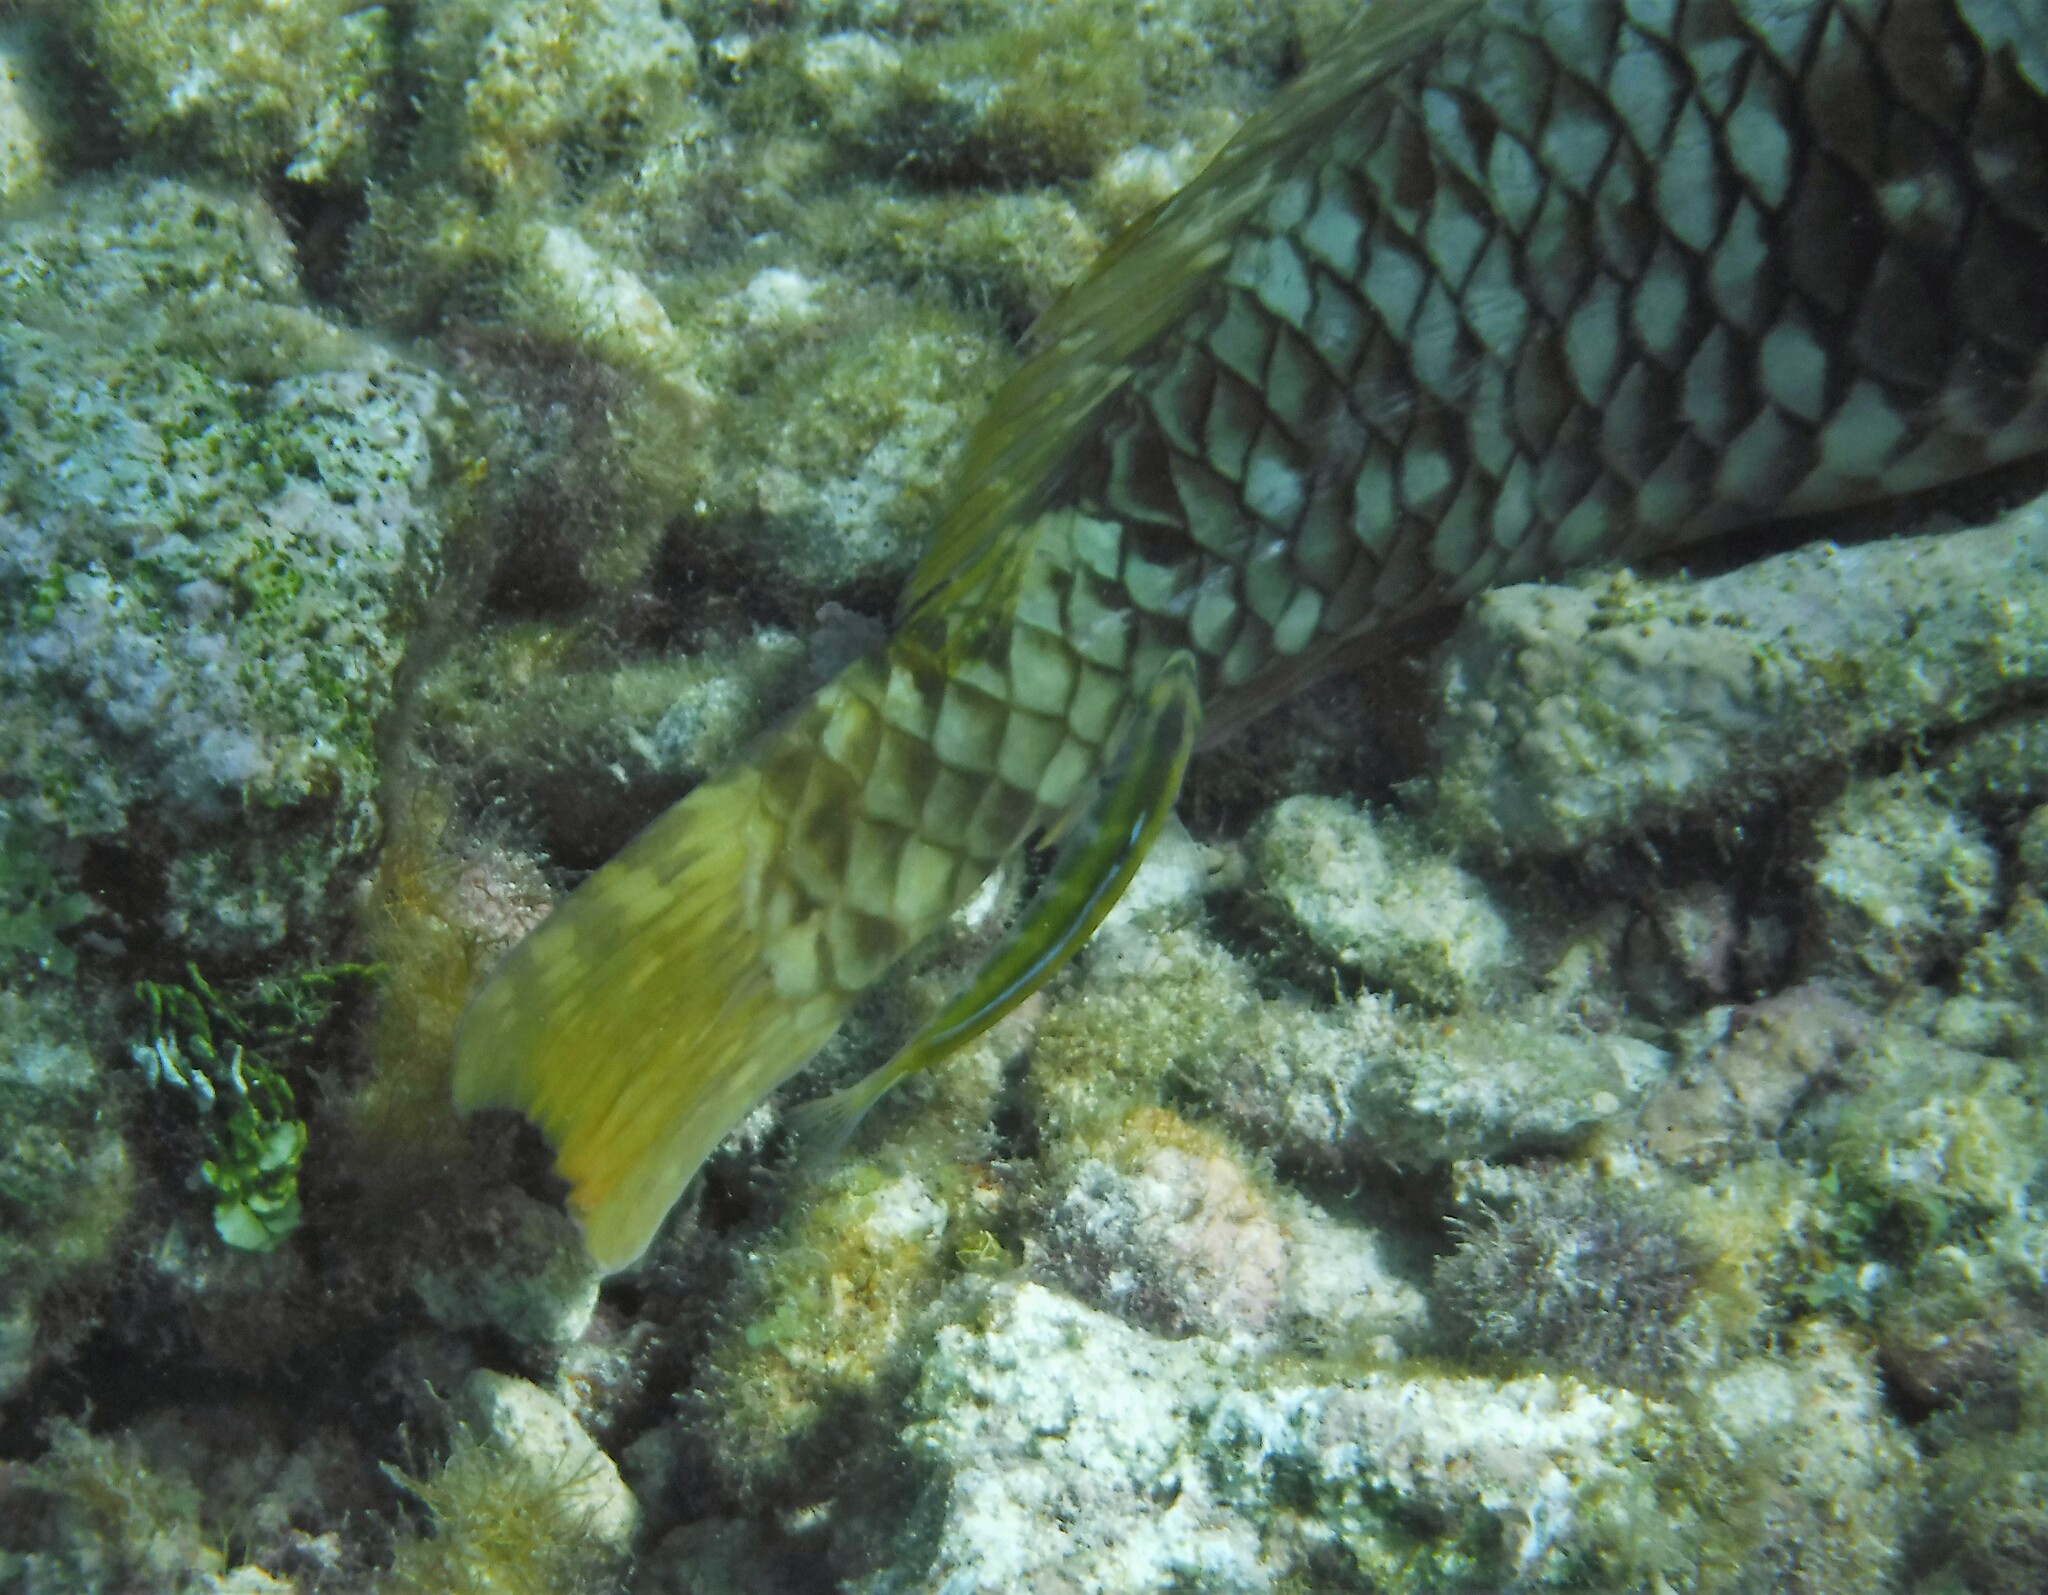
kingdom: Animalia
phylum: Chordata
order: Perciformes
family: Scaridae
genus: Sparisoma
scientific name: Sparisoma rubripinne
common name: Redfin parrotfish
